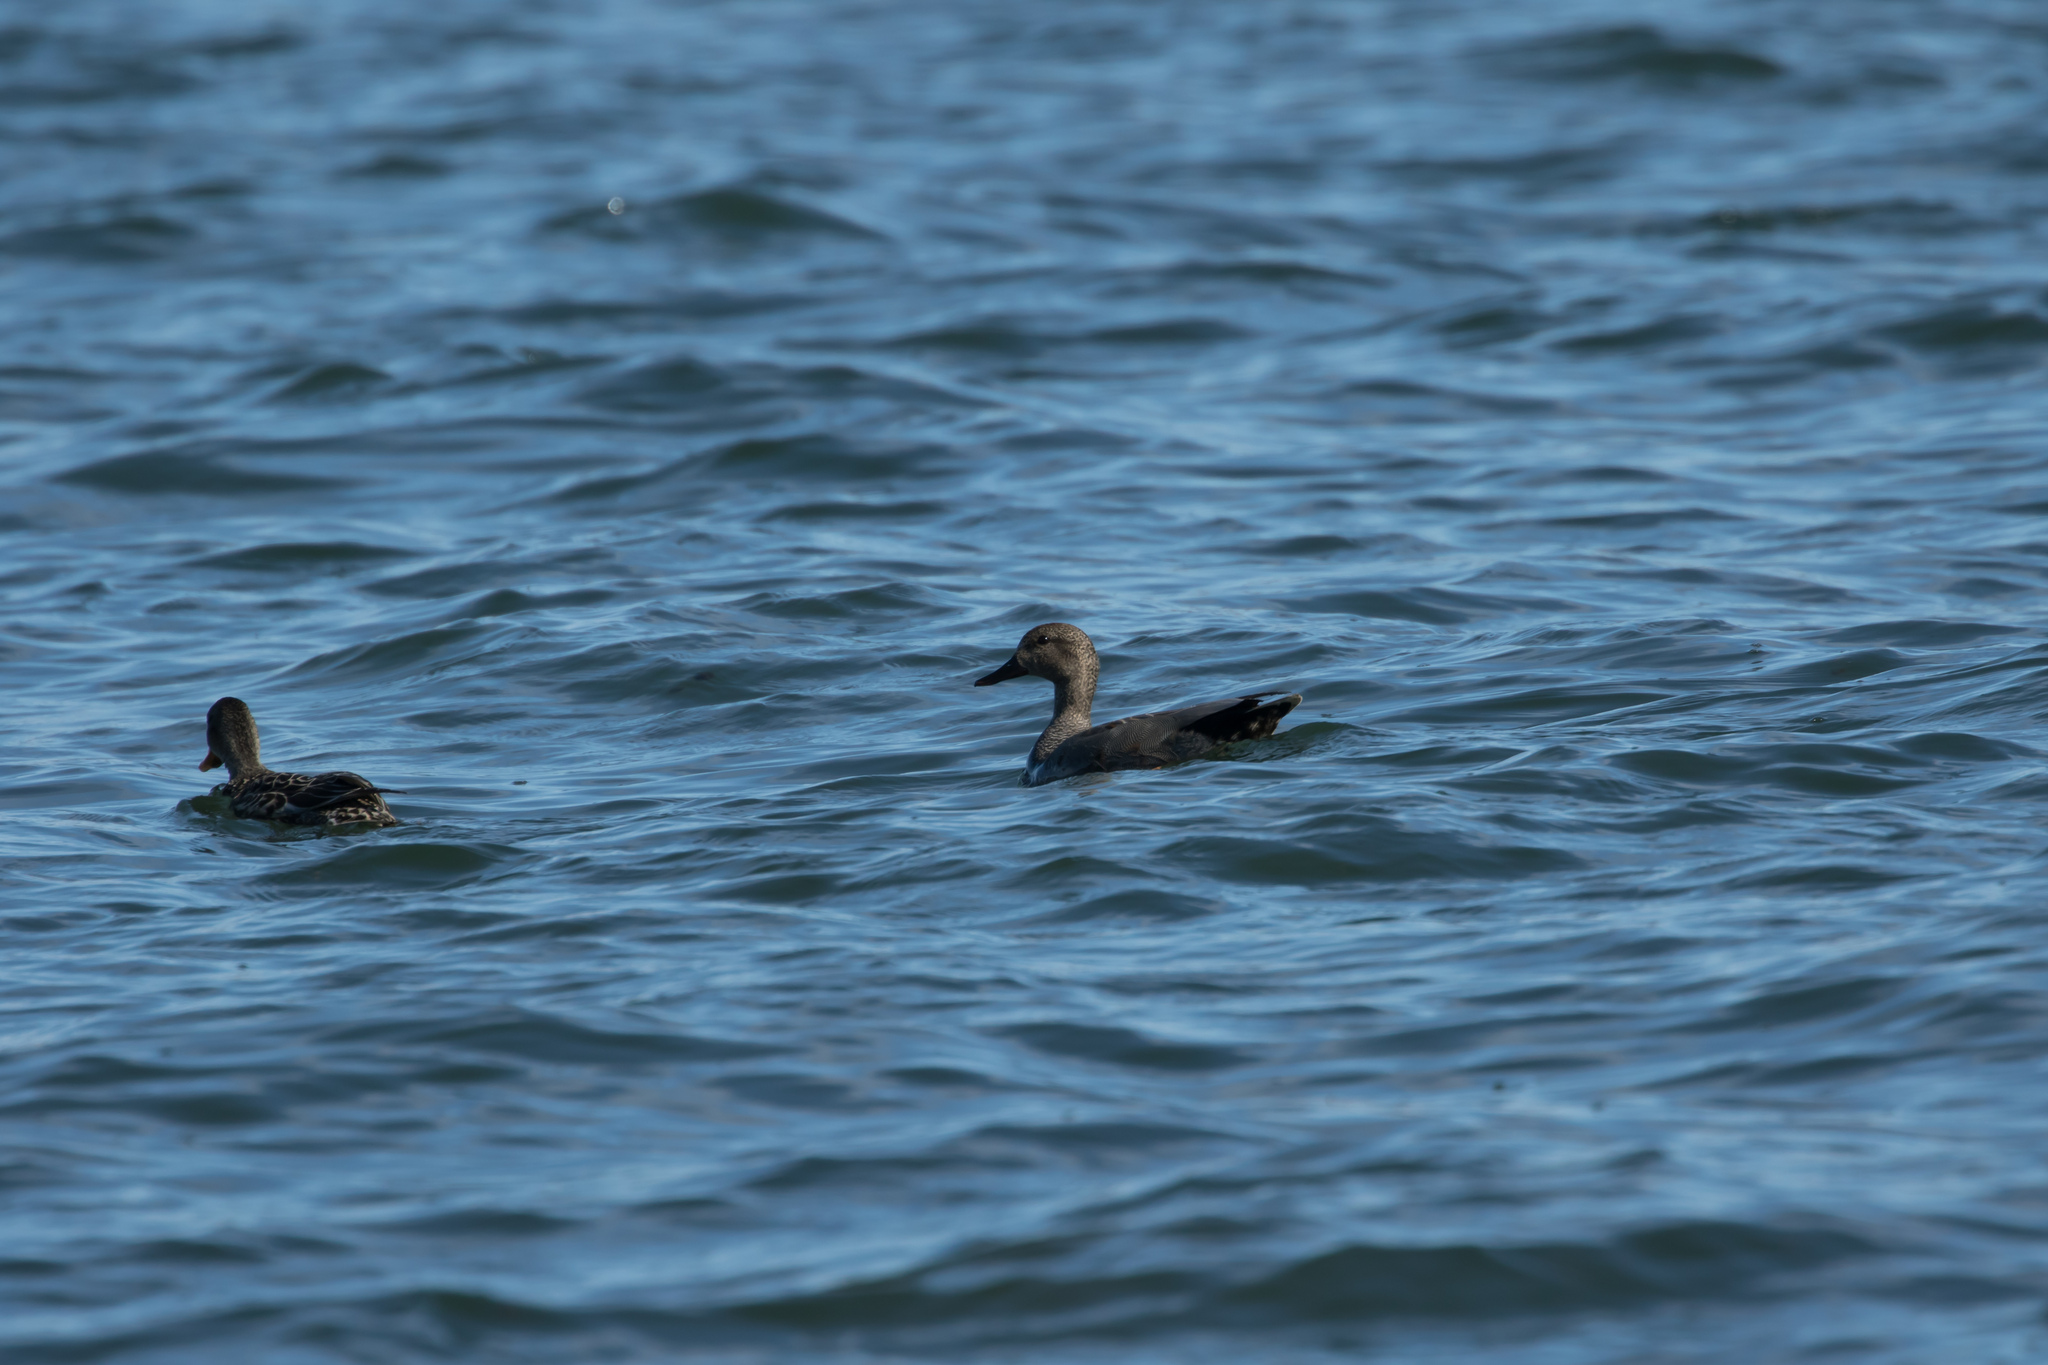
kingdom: Animalia
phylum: Chordata
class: Aves
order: Anseriformes
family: Anatidae
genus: Mareca
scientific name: Mareca strepera
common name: Gadwall
